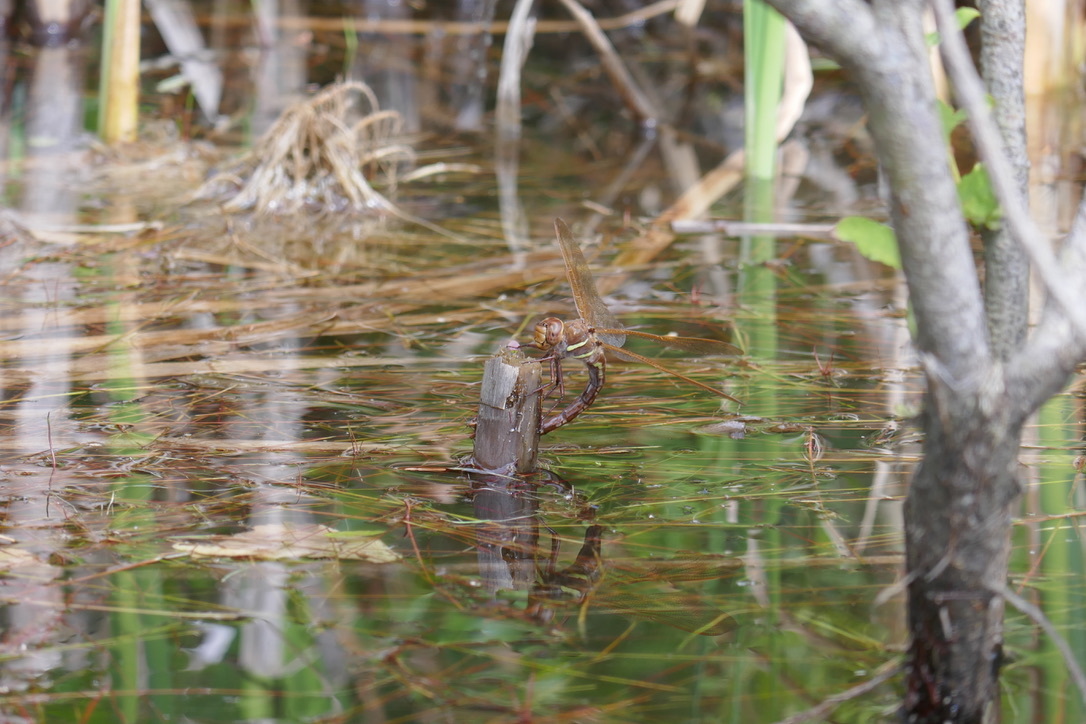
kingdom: Animalia
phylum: Arthropoda
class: Insecta
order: Odonata
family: Aeshnidae
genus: Aeshna
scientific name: Aeshna grandis
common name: Brown hawker
